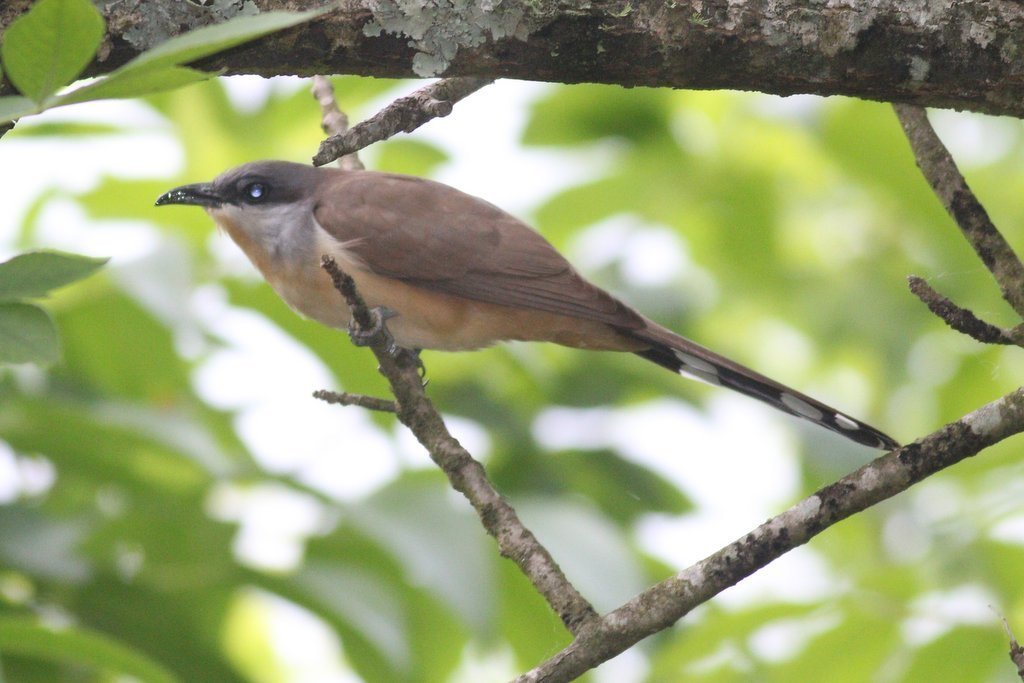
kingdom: Animalia
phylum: Chordata
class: Aves
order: Cuculiformes
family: Cuculidae
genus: Coccyzus
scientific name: Coccyzus melacoryphus
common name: Dark-billed cuckoo
